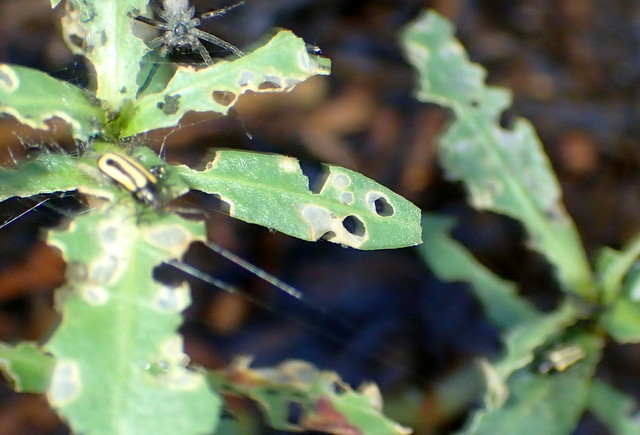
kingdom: Animalia
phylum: Arthropoda
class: Insecta
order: Coleoptera
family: Chrysomelidae
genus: Agasicles
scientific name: Agasicles hygrophila
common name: Alligatorweed flea beetle
